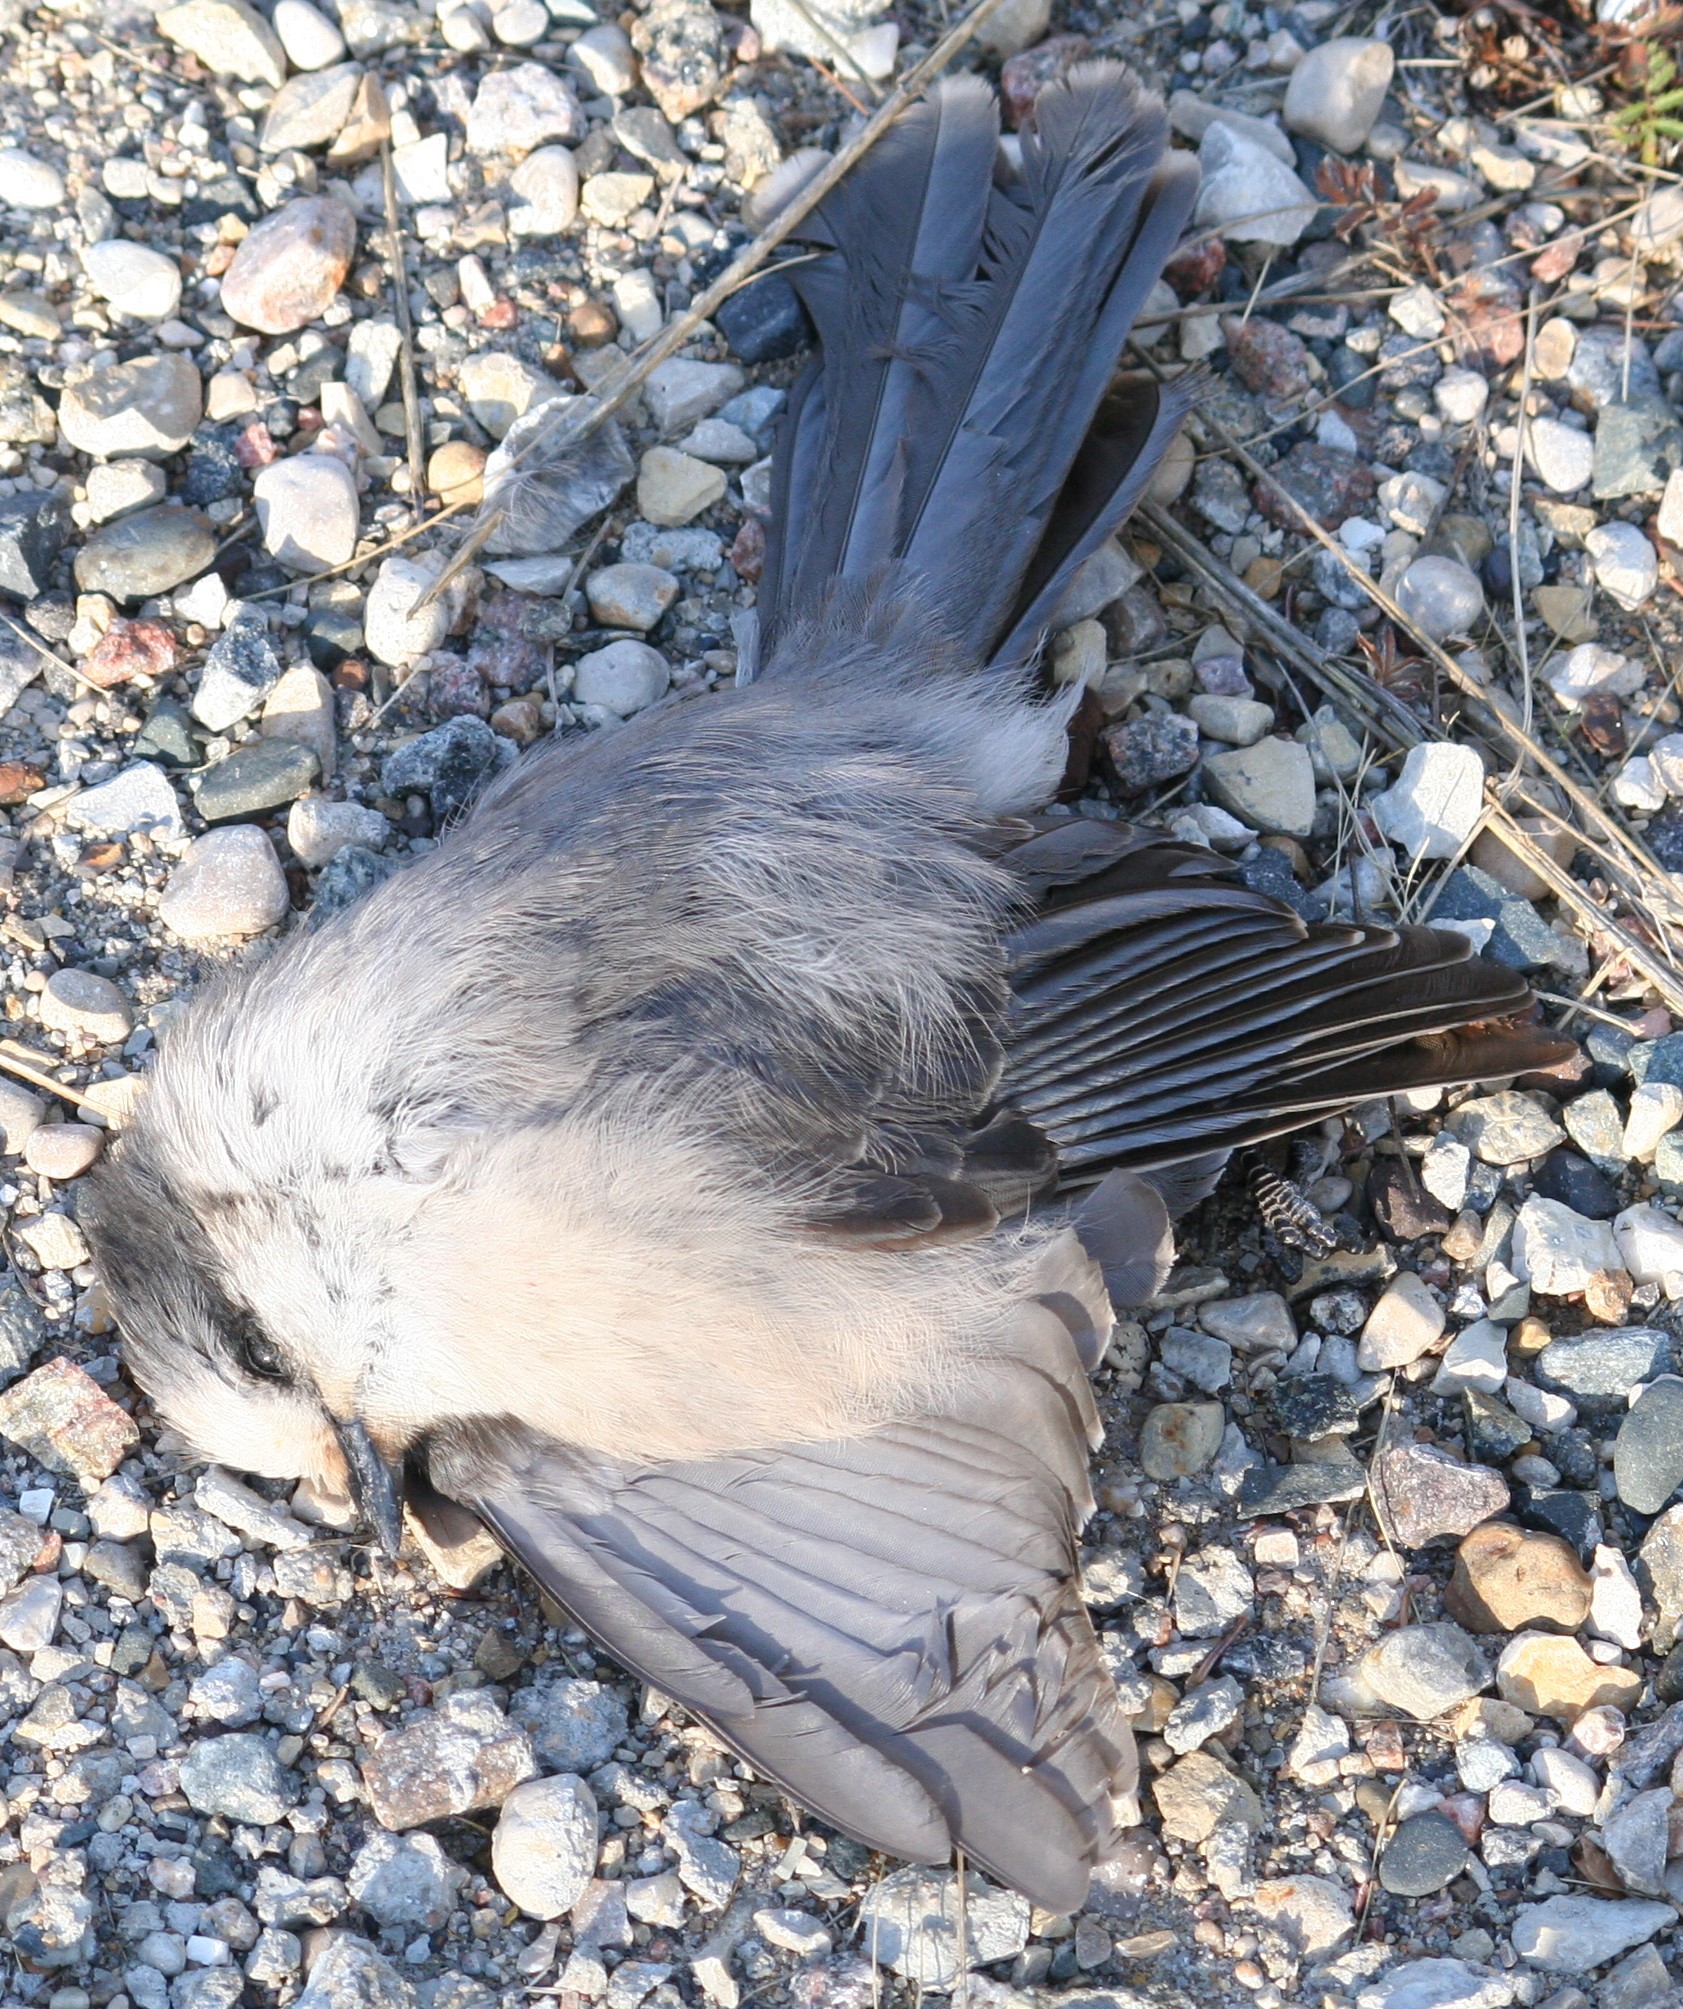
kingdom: Animalia
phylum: Chordata
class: Aves
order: Passeriformes
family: Corvidae
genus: Perisoreus
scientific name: Perisoreus canadensis
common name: Gray jay
